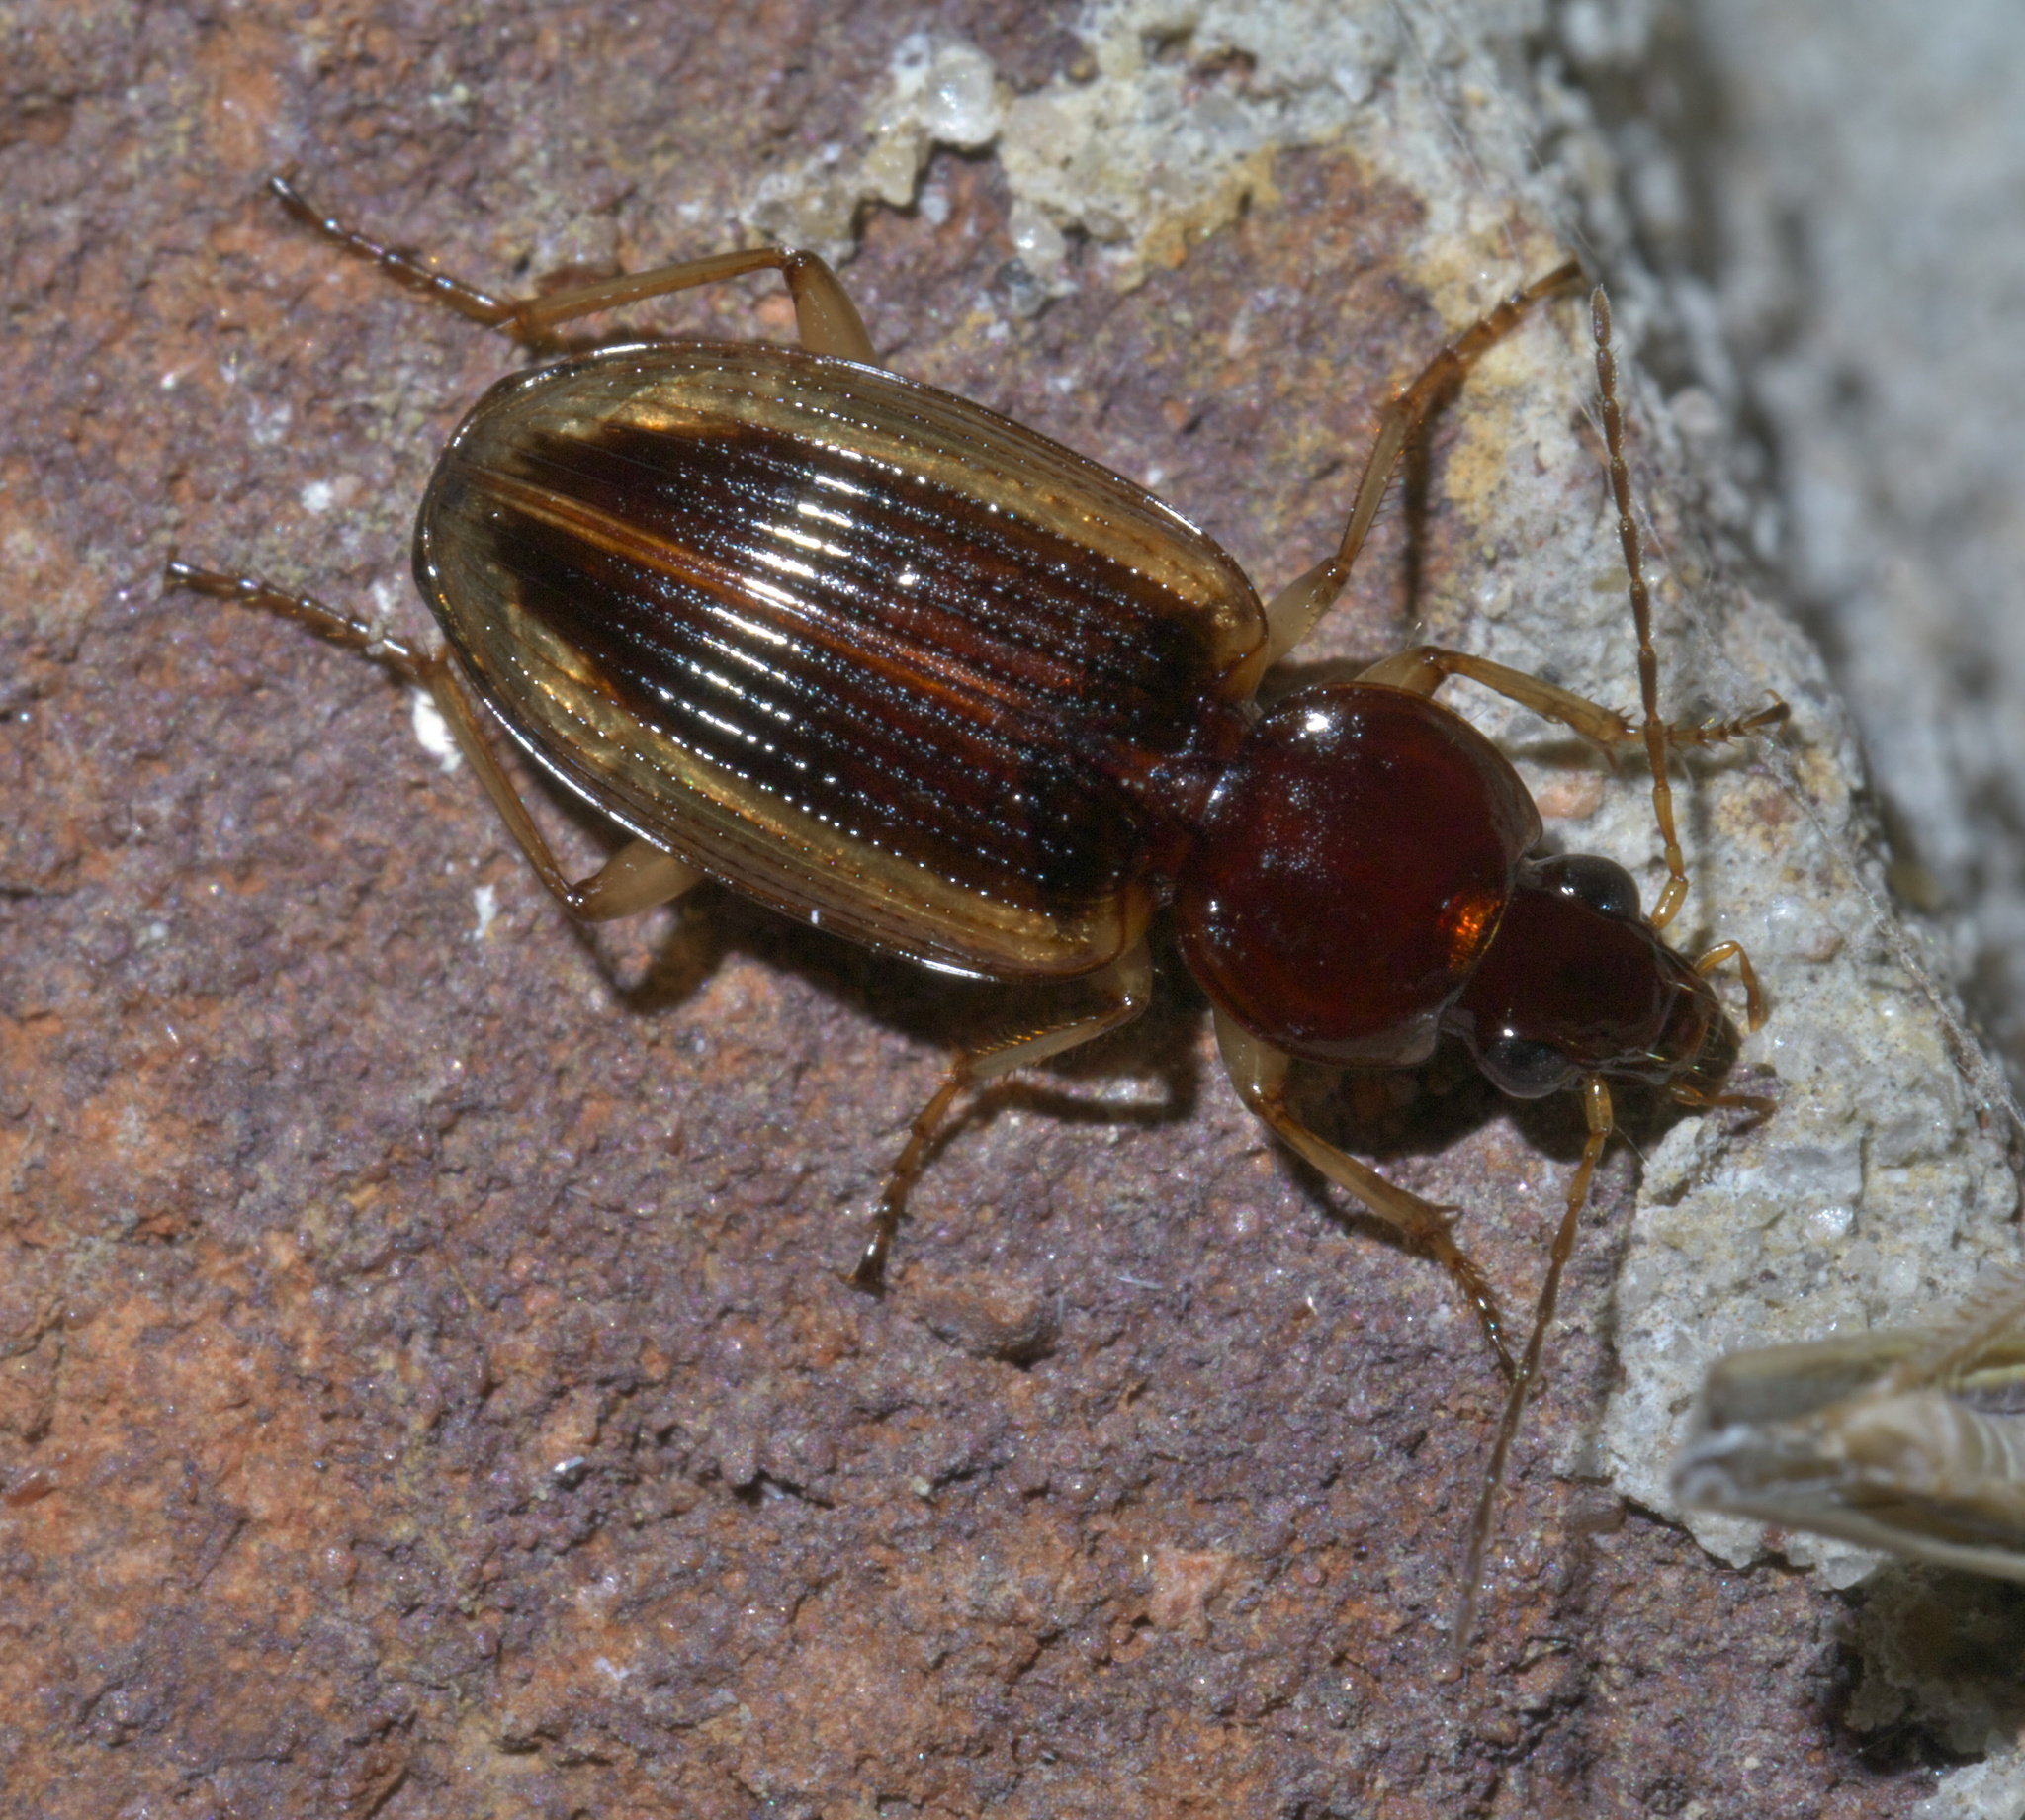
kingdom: Animalia
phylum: Arthropoda
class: Insecta
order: Coleoptera
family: Carabidae
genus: Agonum
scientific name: Agonum pallipes
